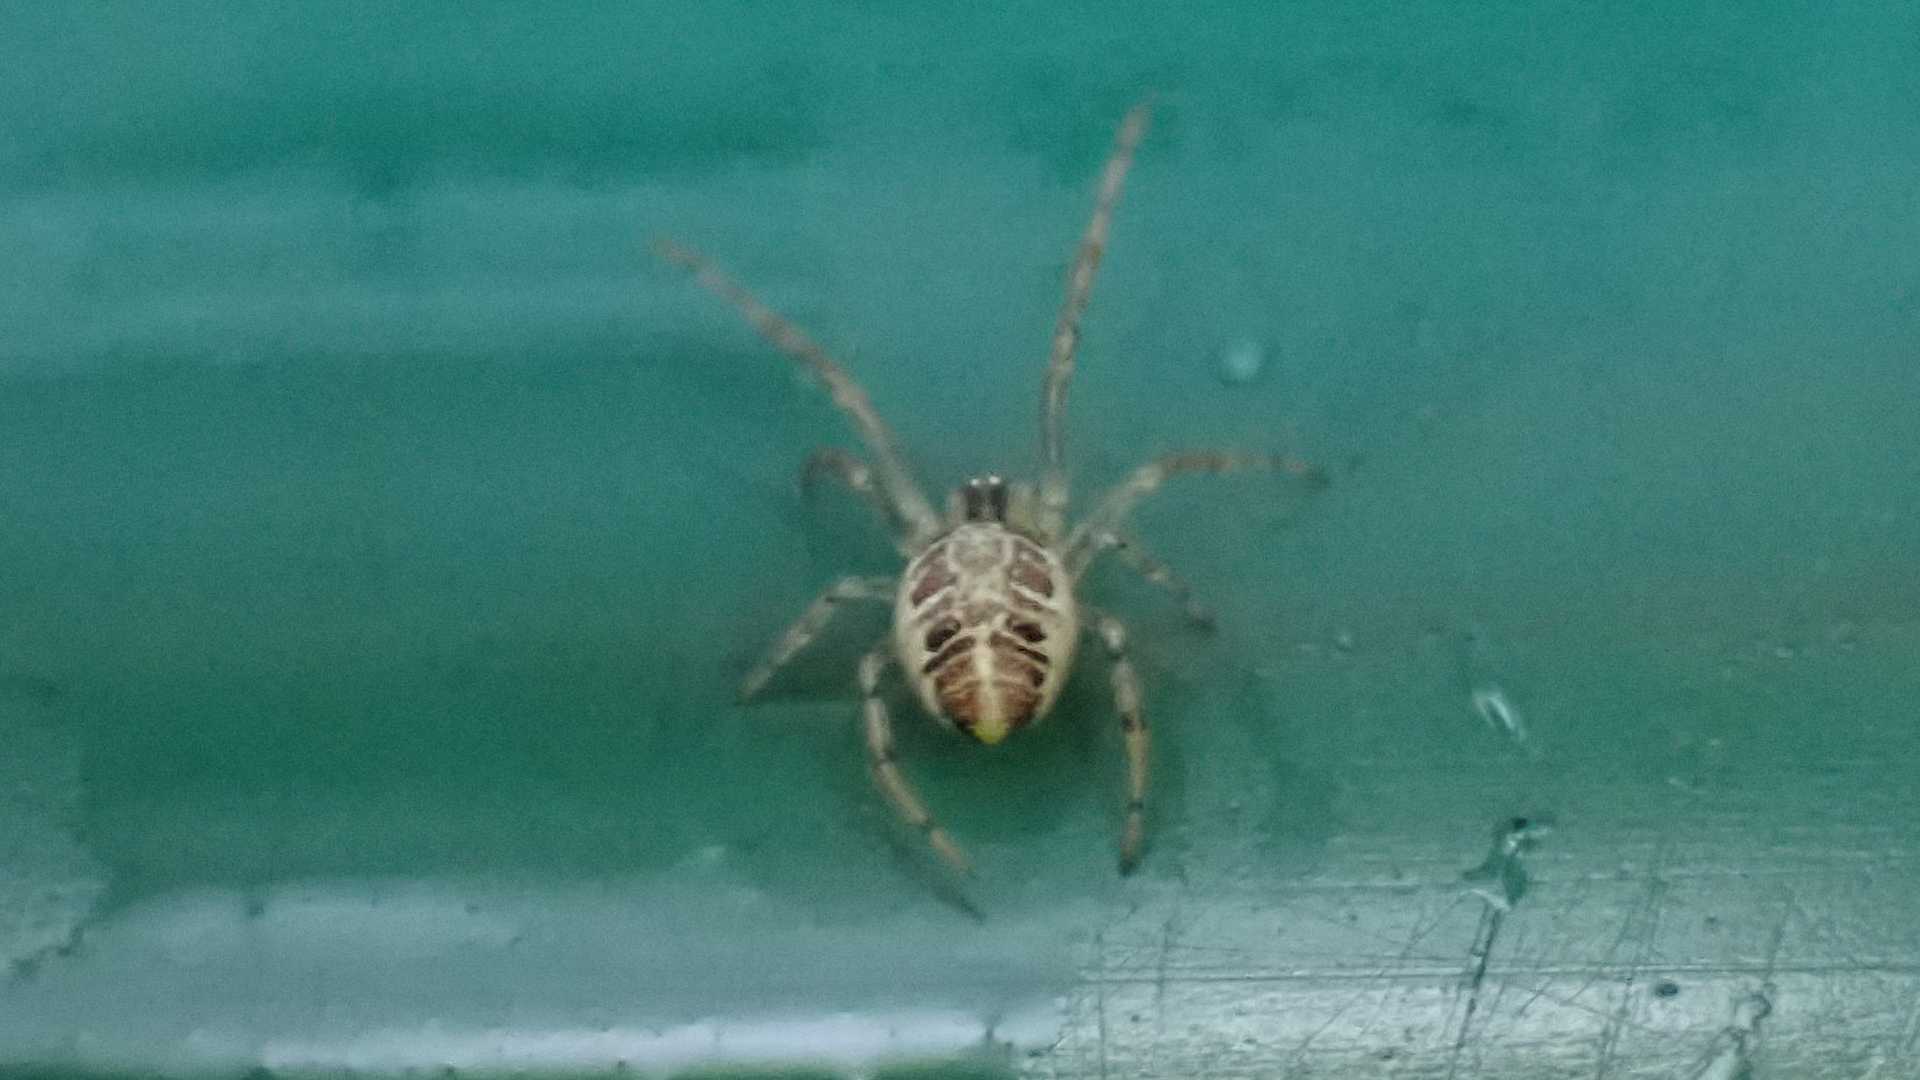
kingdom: Animalia
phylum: Arthropoda
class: Arachnida
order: Araneae
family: Theridiidae
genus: Phylloneta
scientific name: Phylloneta impressa
